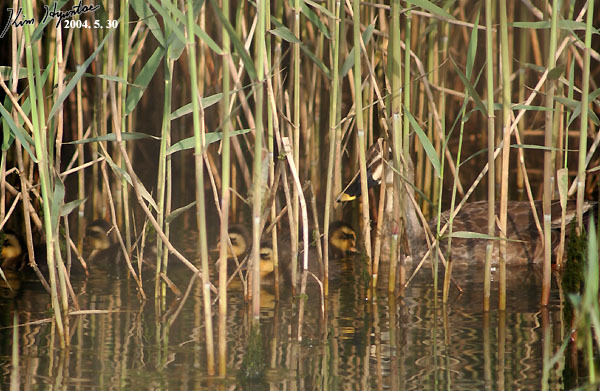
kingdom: Animalia
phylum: Chordata
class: Aves
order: Anseriformes
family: Anatidae
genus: Anas
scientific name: Anas zonorhyncha
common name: Eastern spot-billed duck
